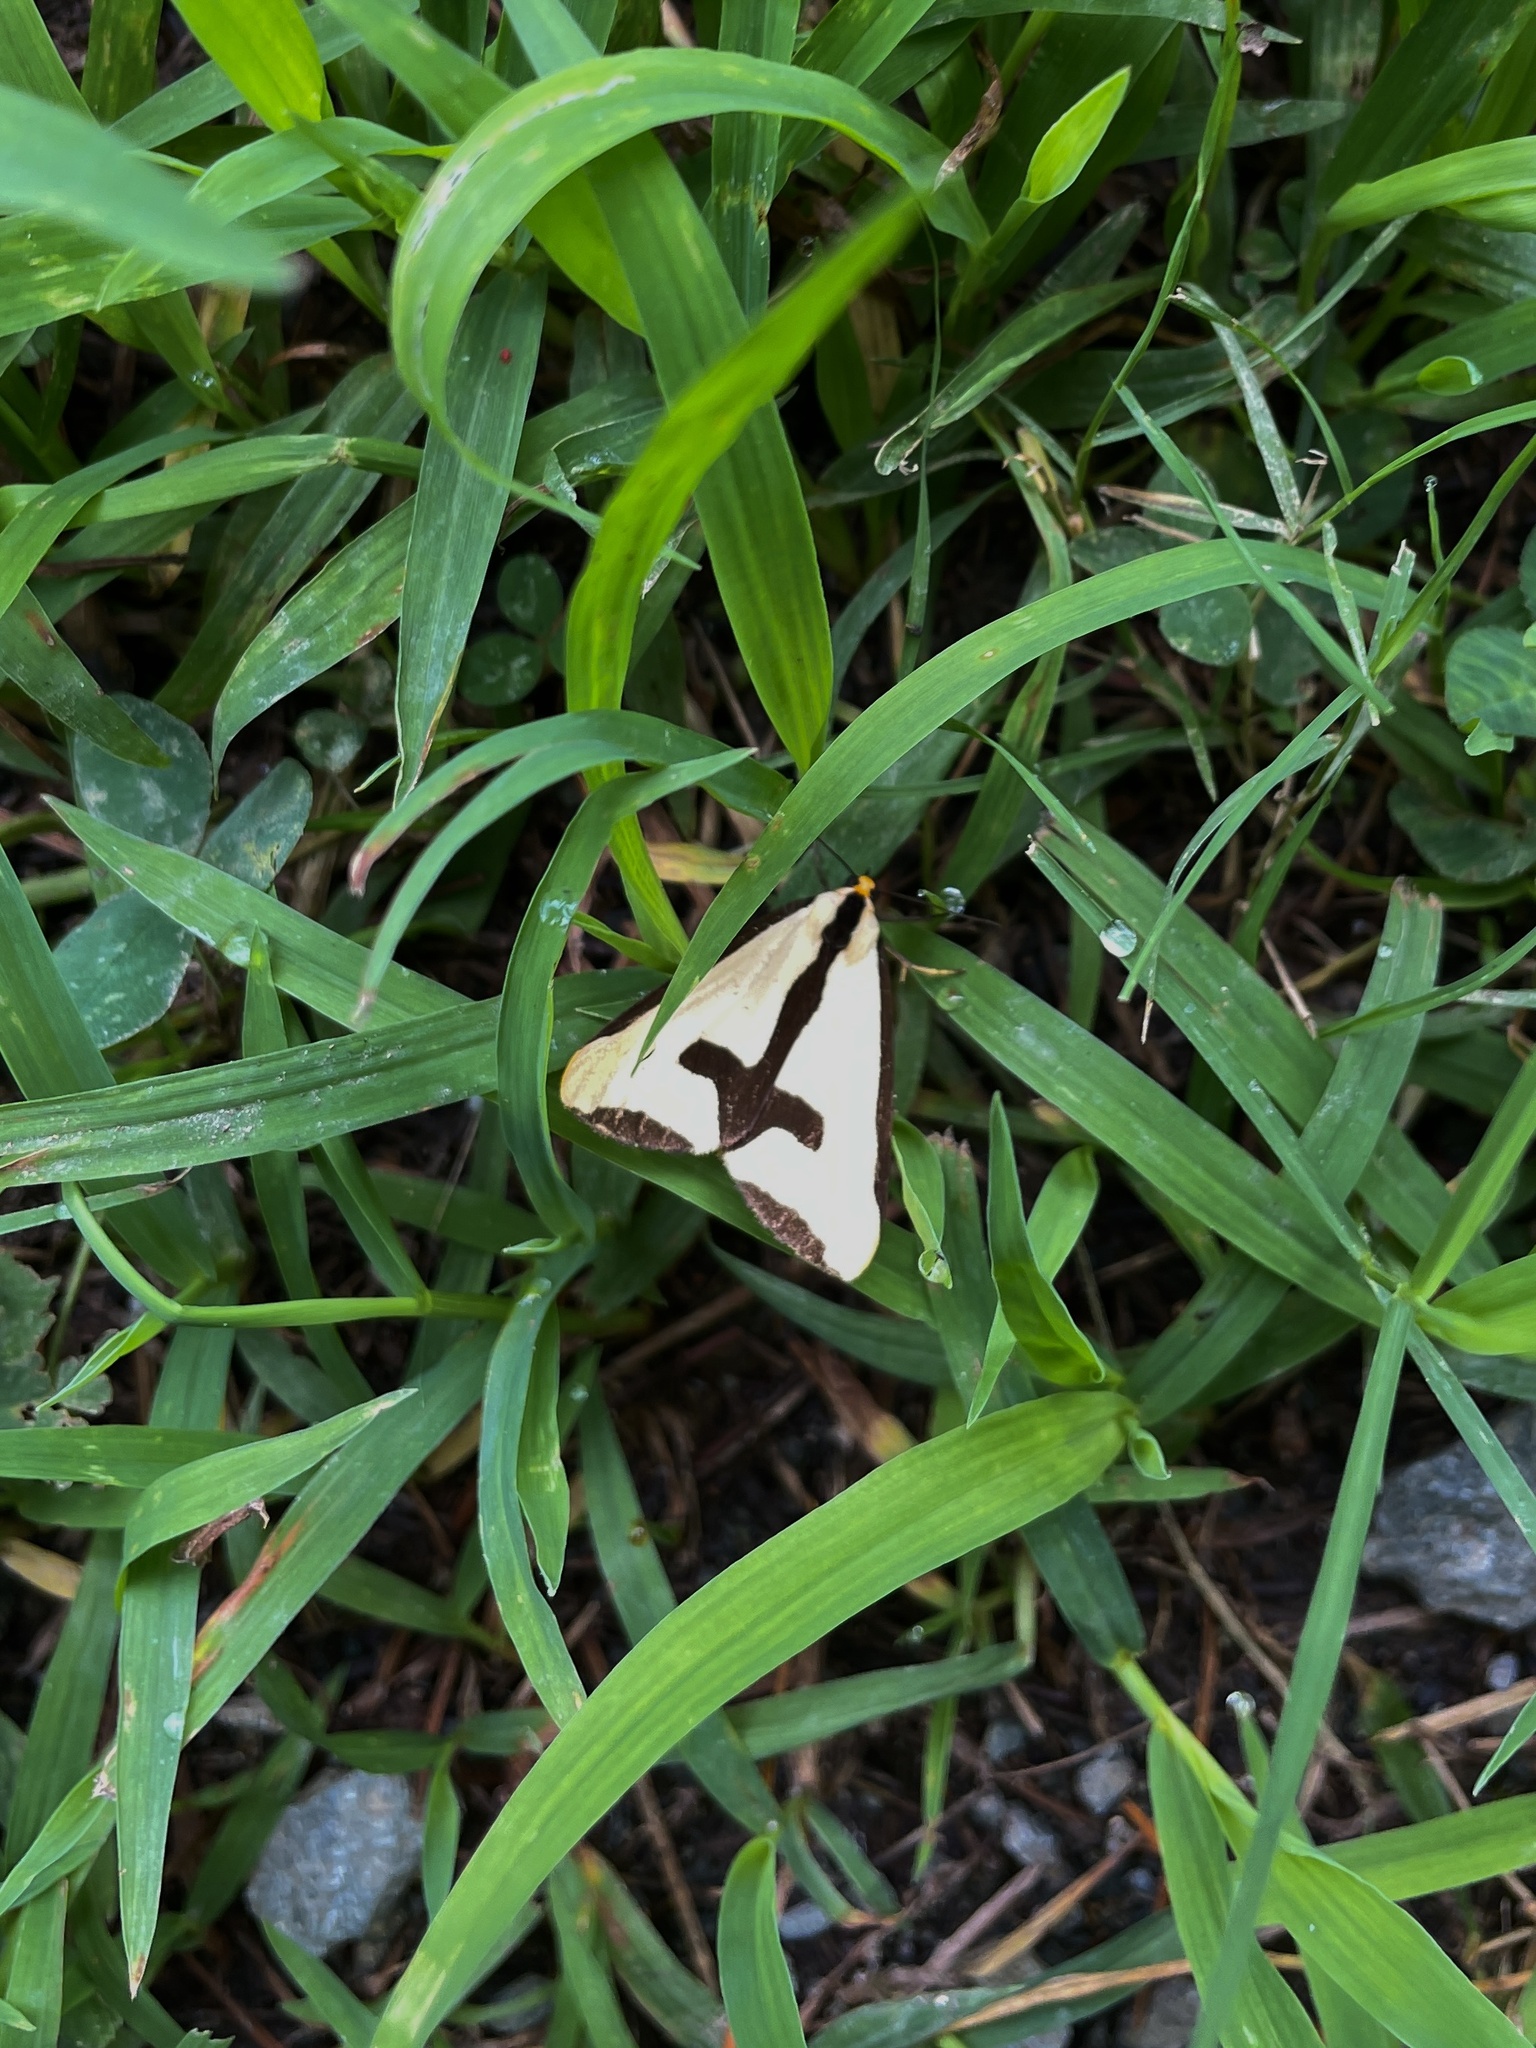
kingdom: Animalia
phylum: Arthropoda
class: Insecta
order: Lepidoptera
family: Erebidae
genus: Haploa
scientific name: Haploa clymene
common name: Clymene moth
